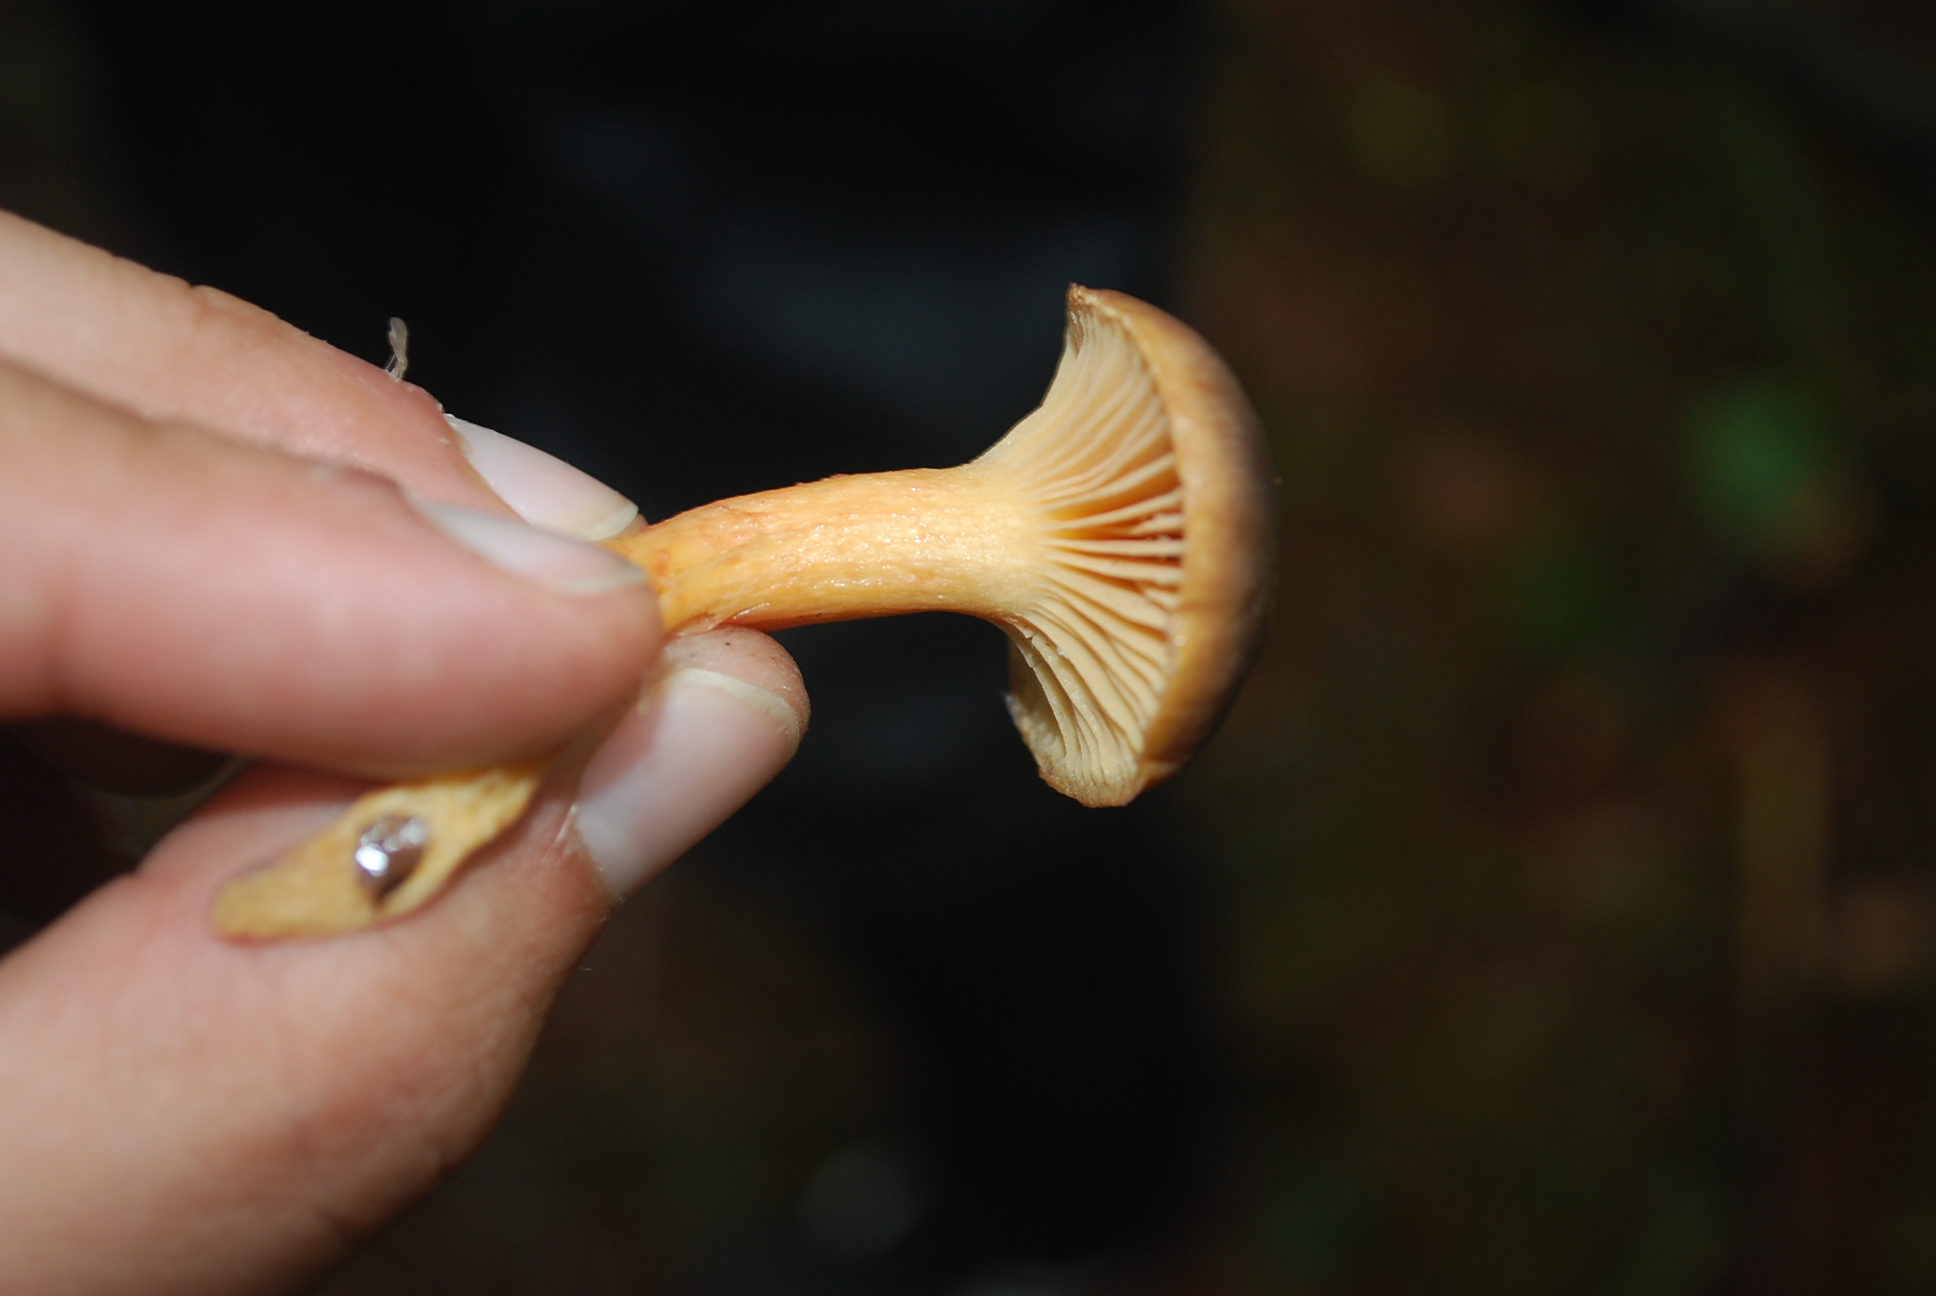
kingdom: Fungi
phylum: Basidiomycota
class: Agaricomycetes
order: Boletales
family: Gomphidiaceae
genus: Chroogomphus
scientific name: Chroogomphus rutilus
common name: Copper spike
